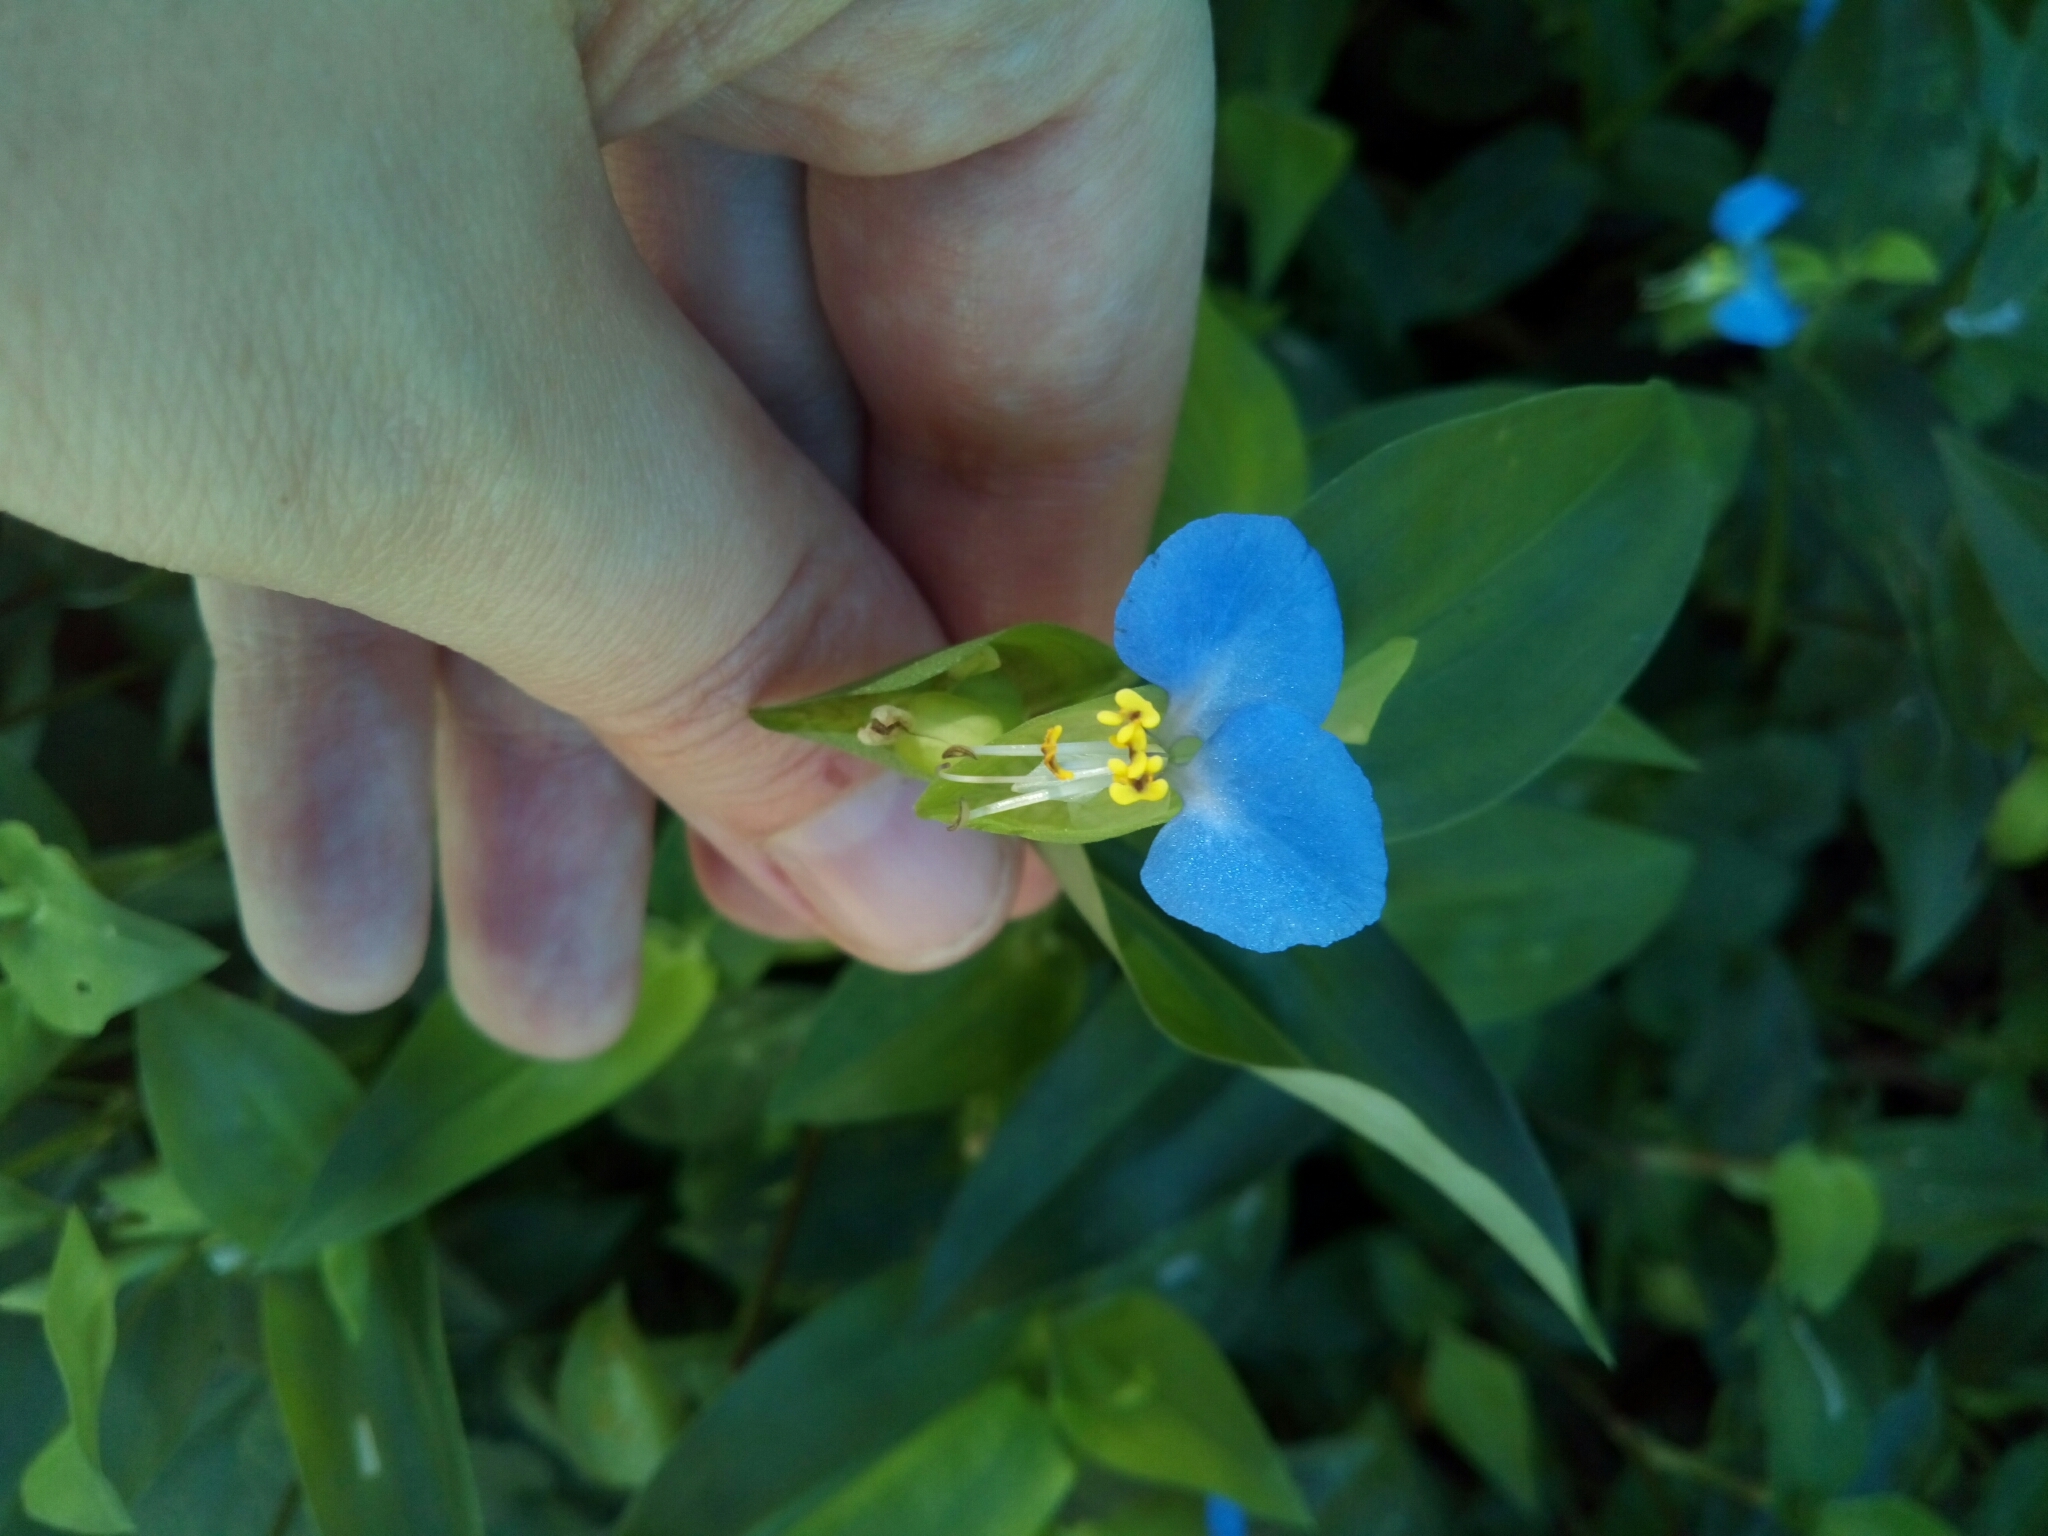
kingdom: Plantae
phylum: Tracheophyta
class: Liliopsida
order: Commelinales
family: Commelinaceae
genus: Commelina
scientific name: Commelina communis
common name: Asiatic dayflower
